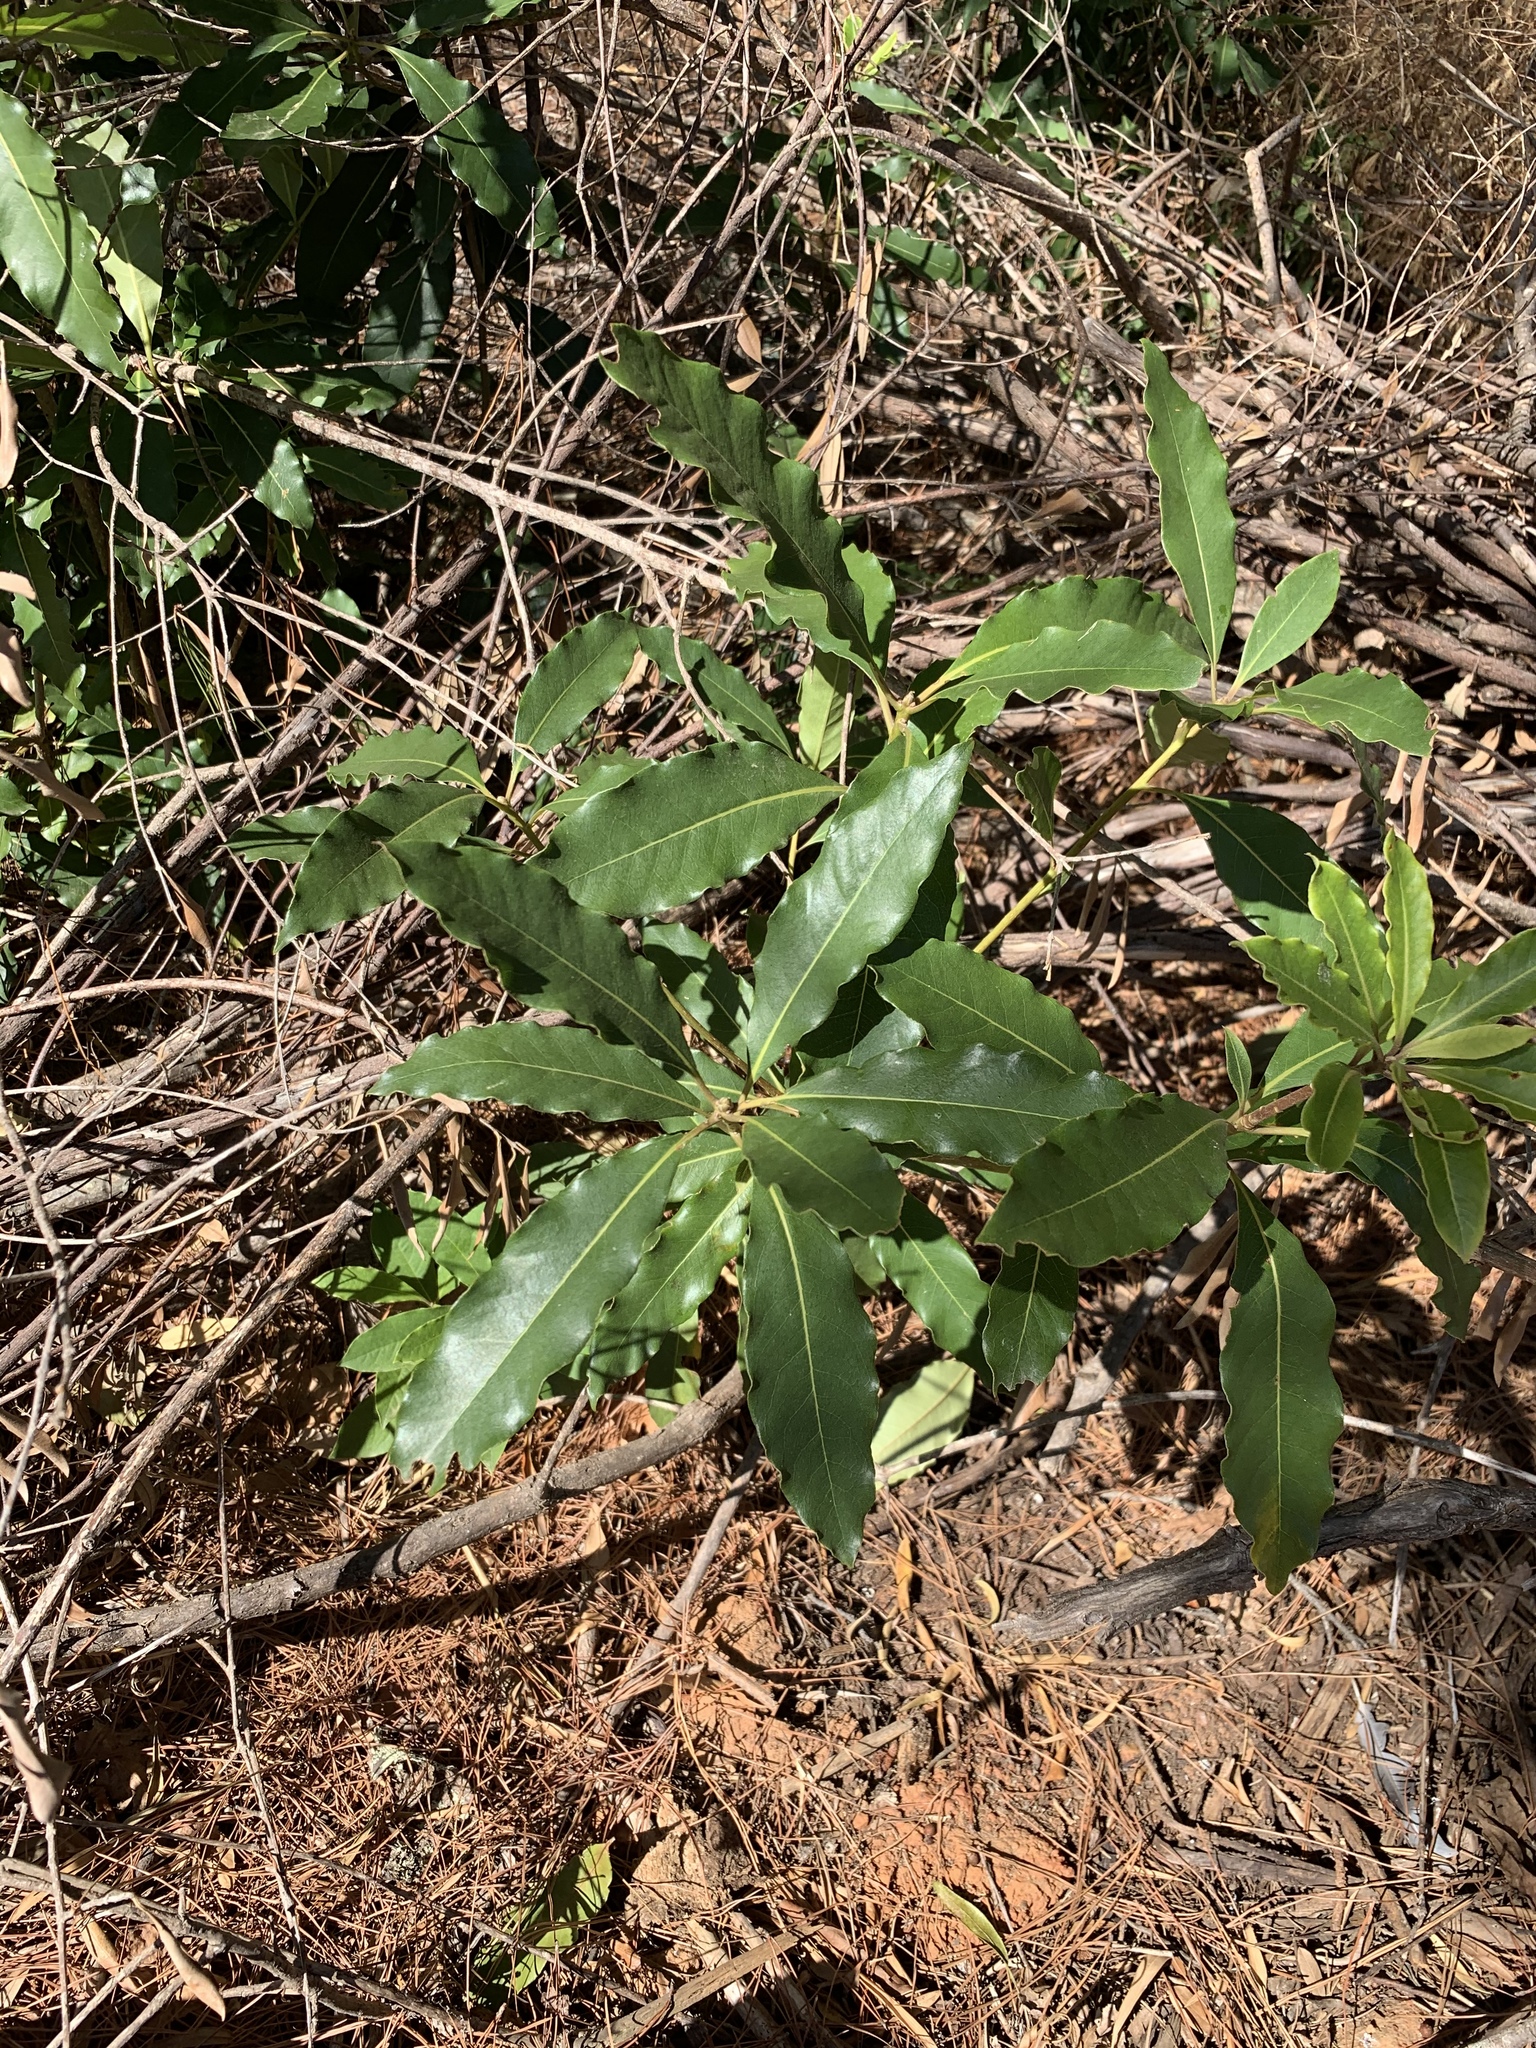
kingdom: Plantae
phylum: Tracheophyta
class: Magnoliopsida
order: Apiales
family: Pittosporaceae
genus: Pittosporum
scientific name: Pittosporum undulatum
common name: Australian cheesewood
